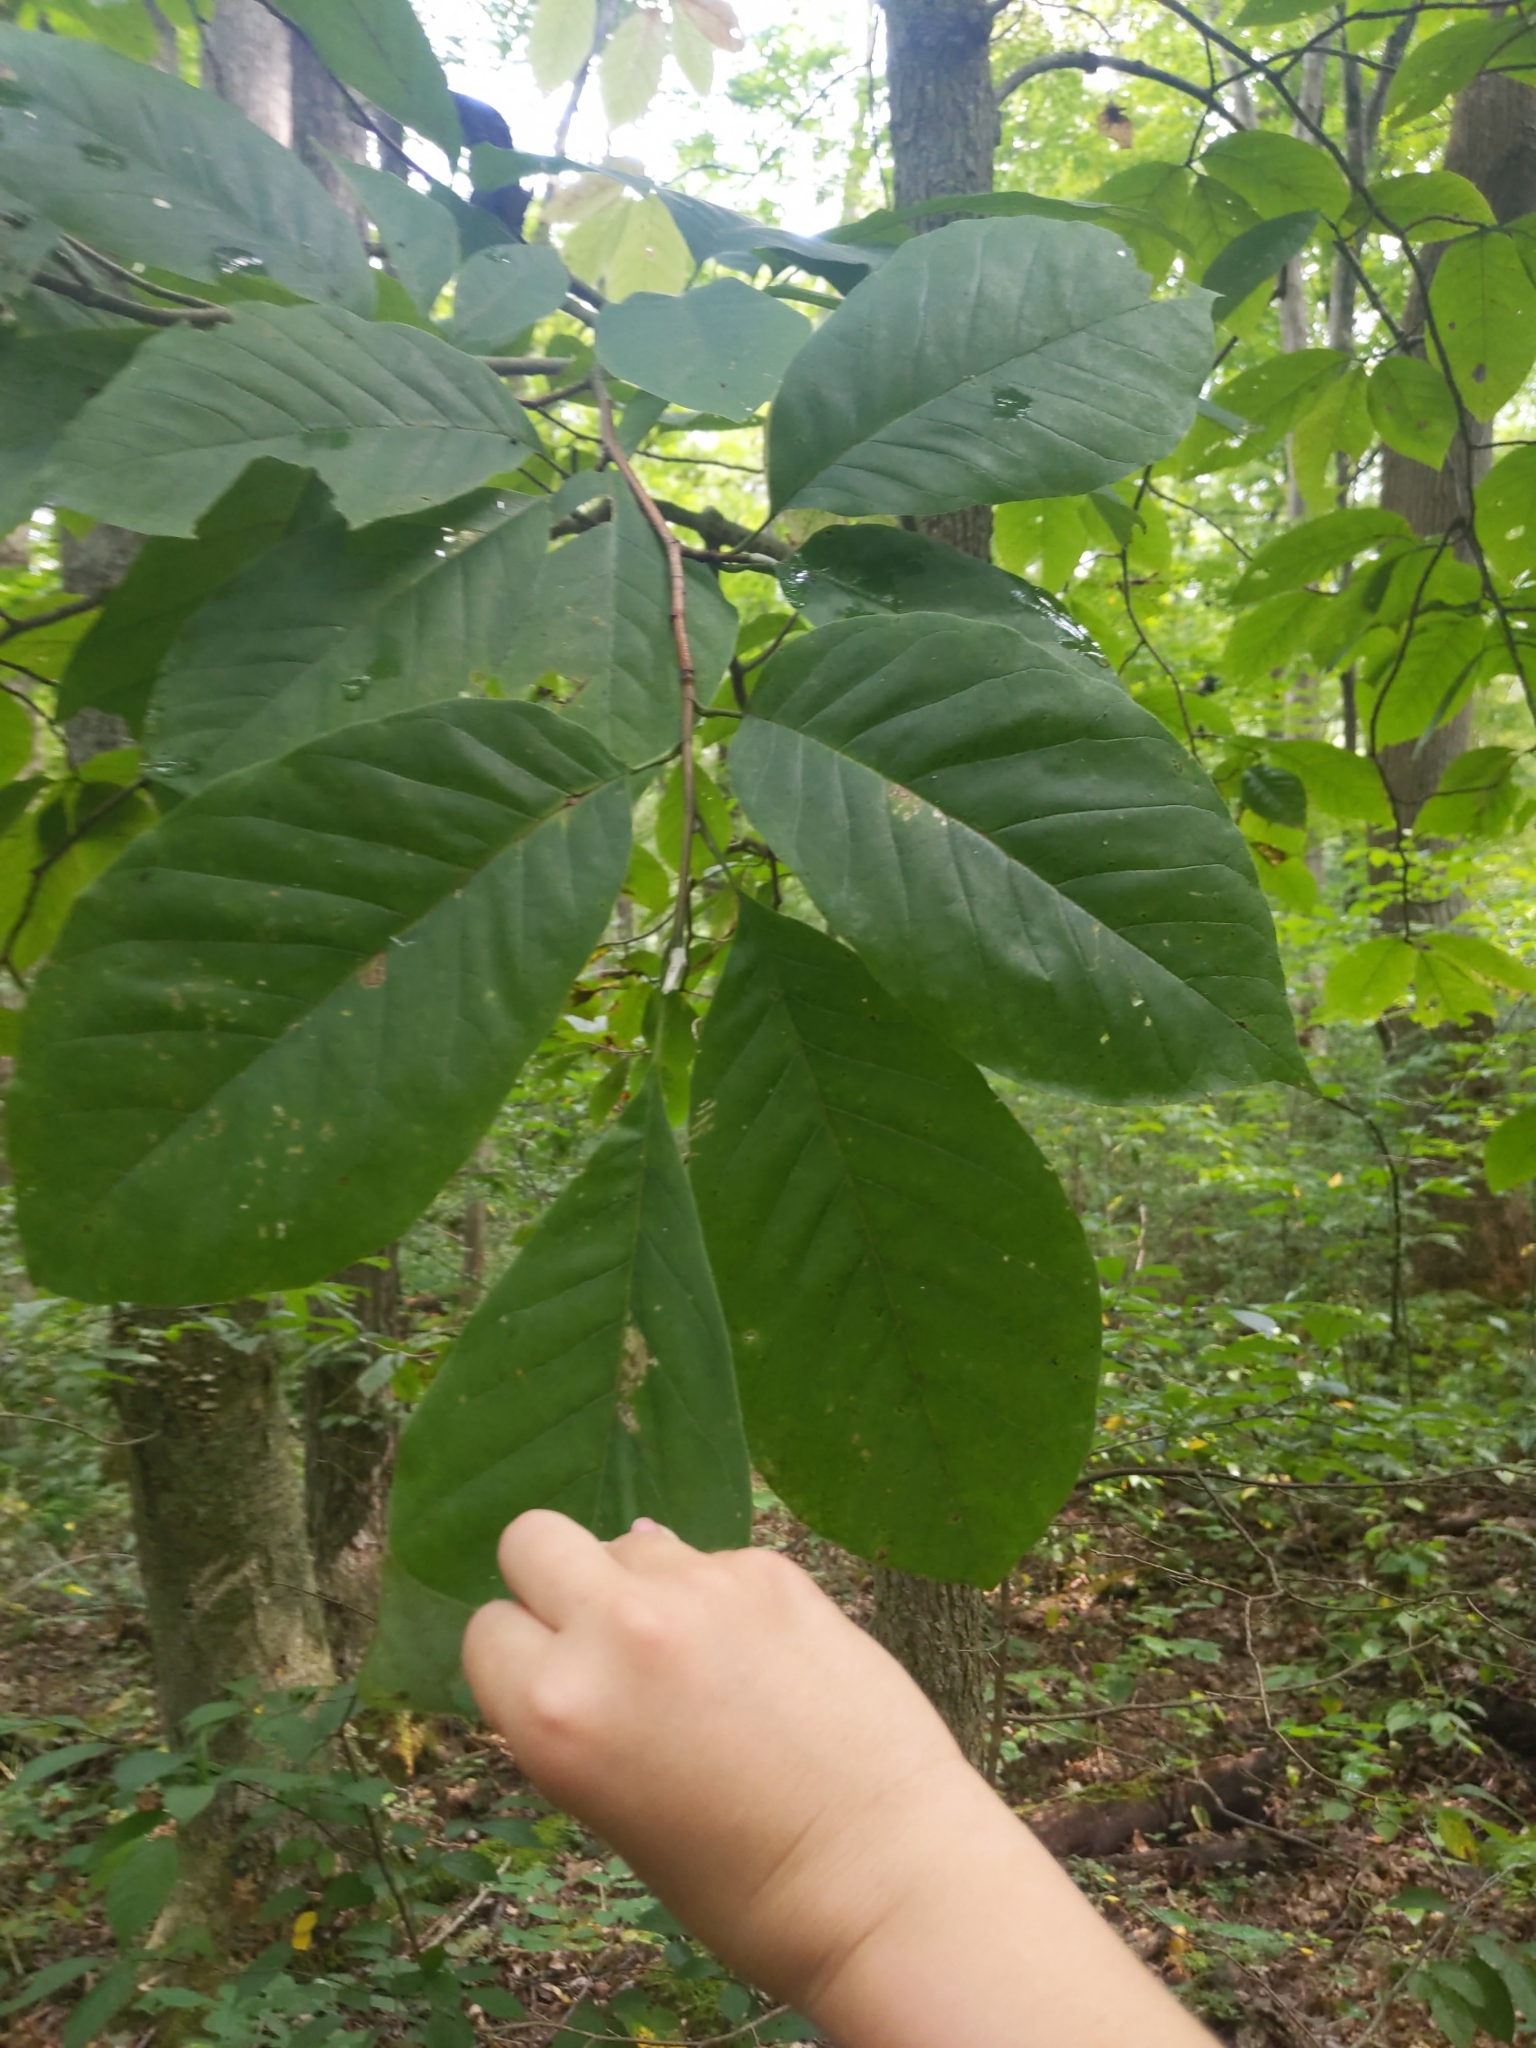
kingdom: Plantae
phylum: Tracheophyta
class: Magnoliopsida
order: Magnoliales
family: Annonaceae
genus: Asimina
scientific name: Asimina triloba
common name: Dog-banana
